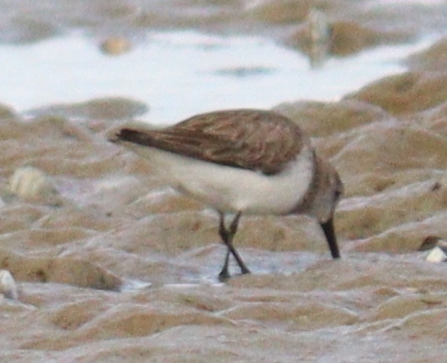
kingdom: Animalia
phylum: Chordata
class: Aves
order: Charadriiformes
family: Scolopacidae
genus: Calidris
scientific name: Calidris alpina
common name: Dunlin
